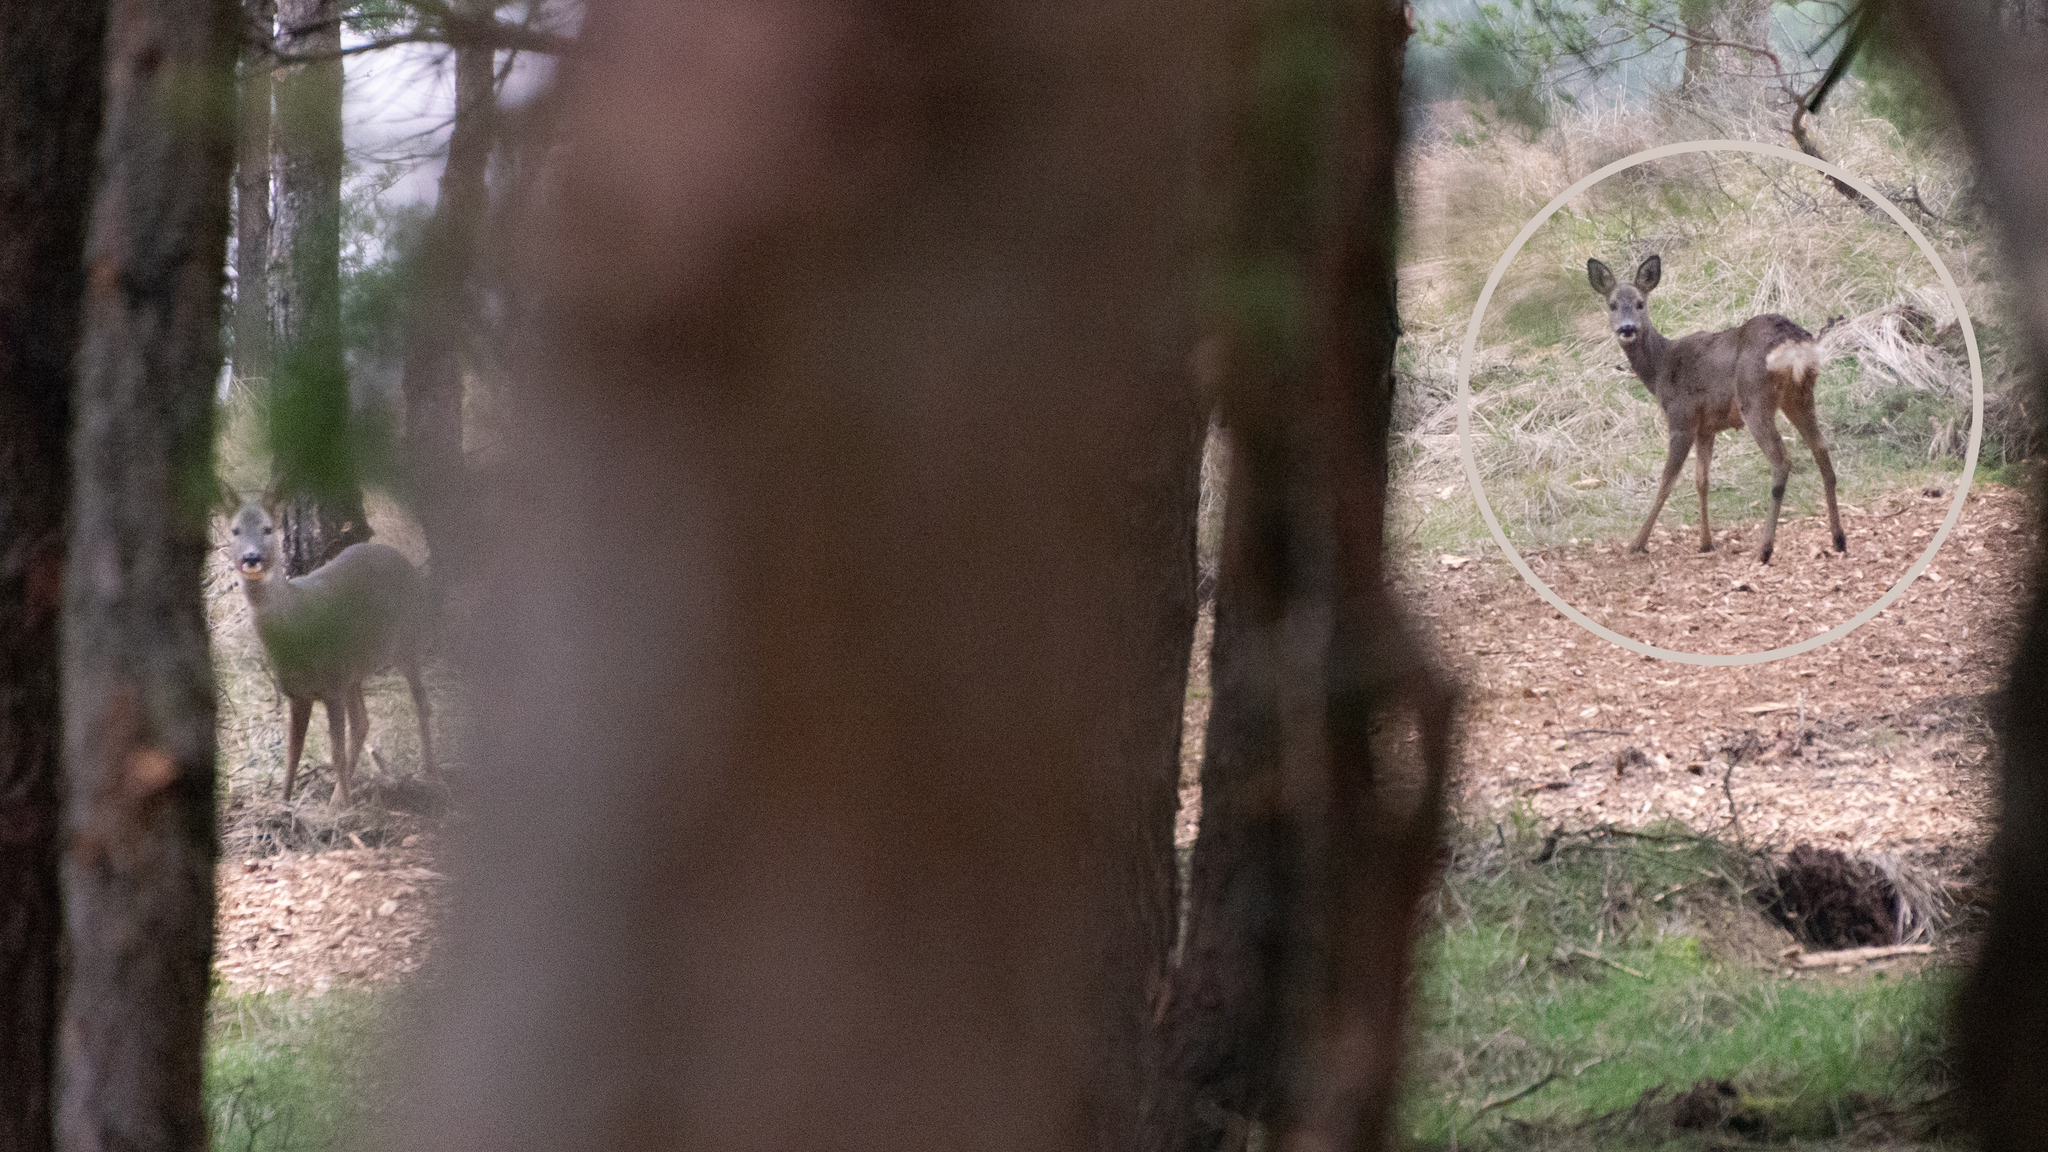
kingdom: Animalia
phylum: Chordata
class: Mammalia
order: Artiodactyla
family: Cervidae
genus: Capreolus
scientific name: Capreolus capreolus
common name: Western roe deer
